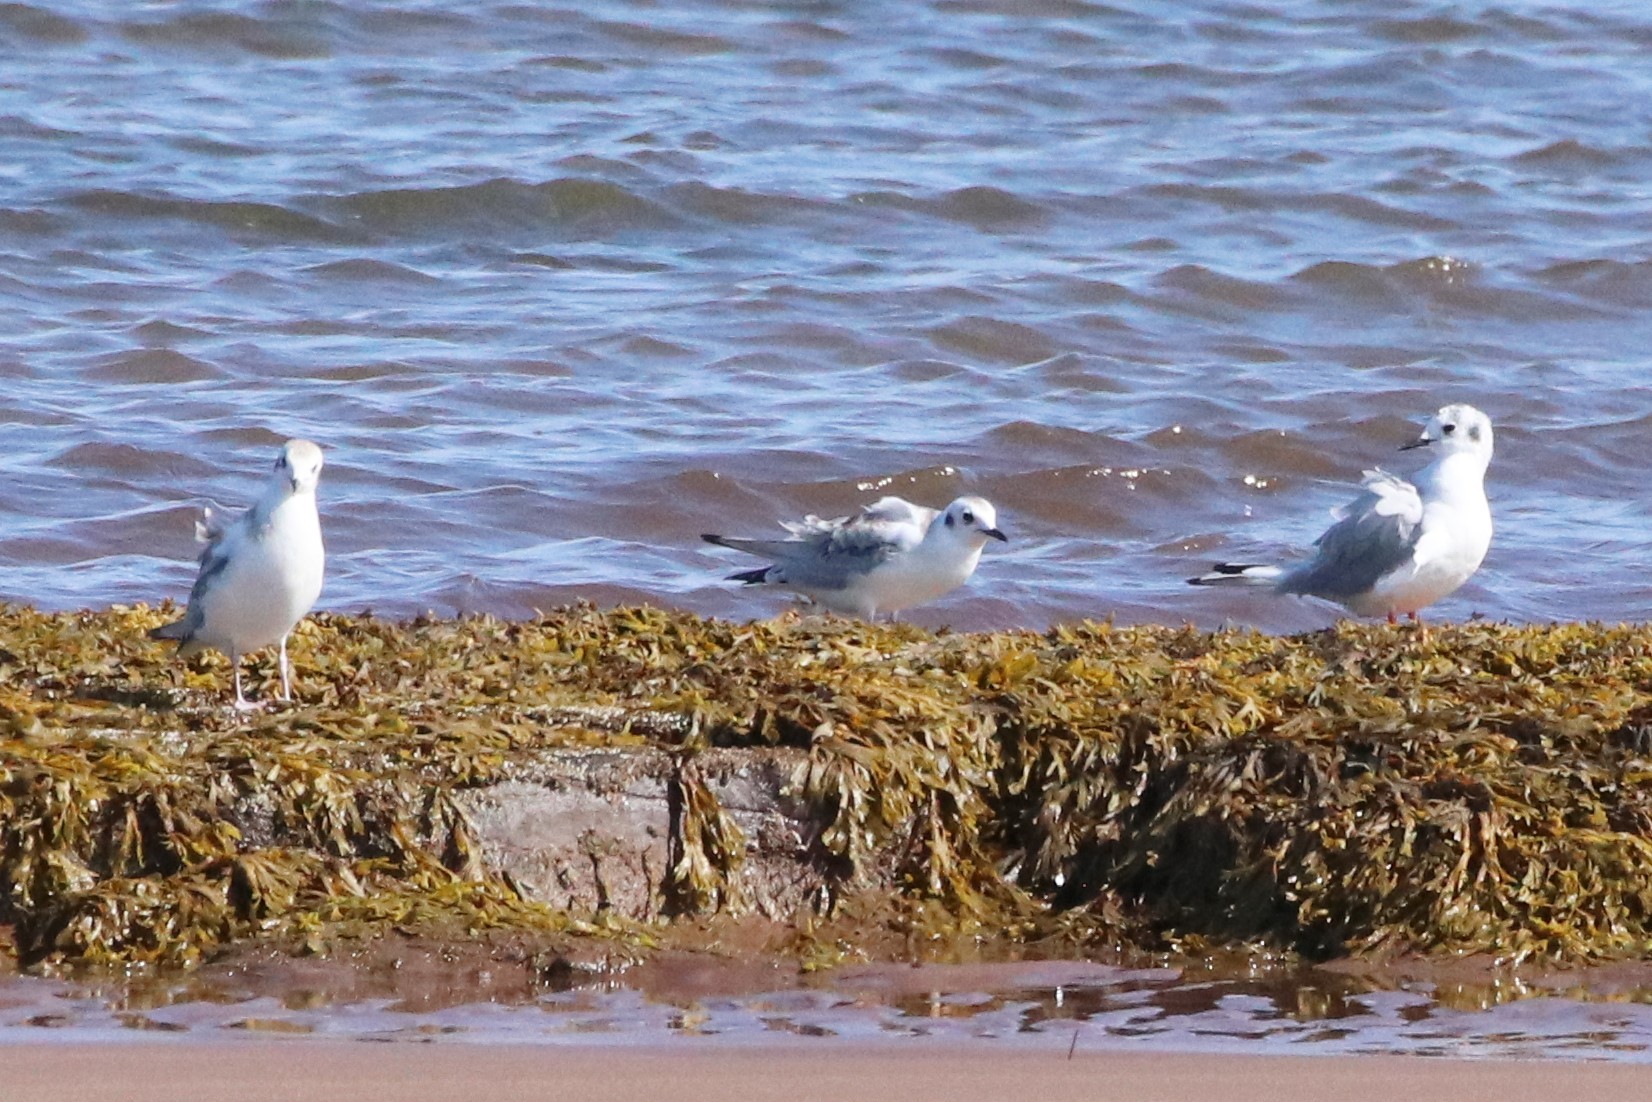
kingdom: Animalia
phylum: Chordata
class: Aves
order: Charadriiformes
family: Laridae
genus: Chroicocephalus
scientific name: Chroicocephalus philadelphia
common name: Bonaparte's gull
